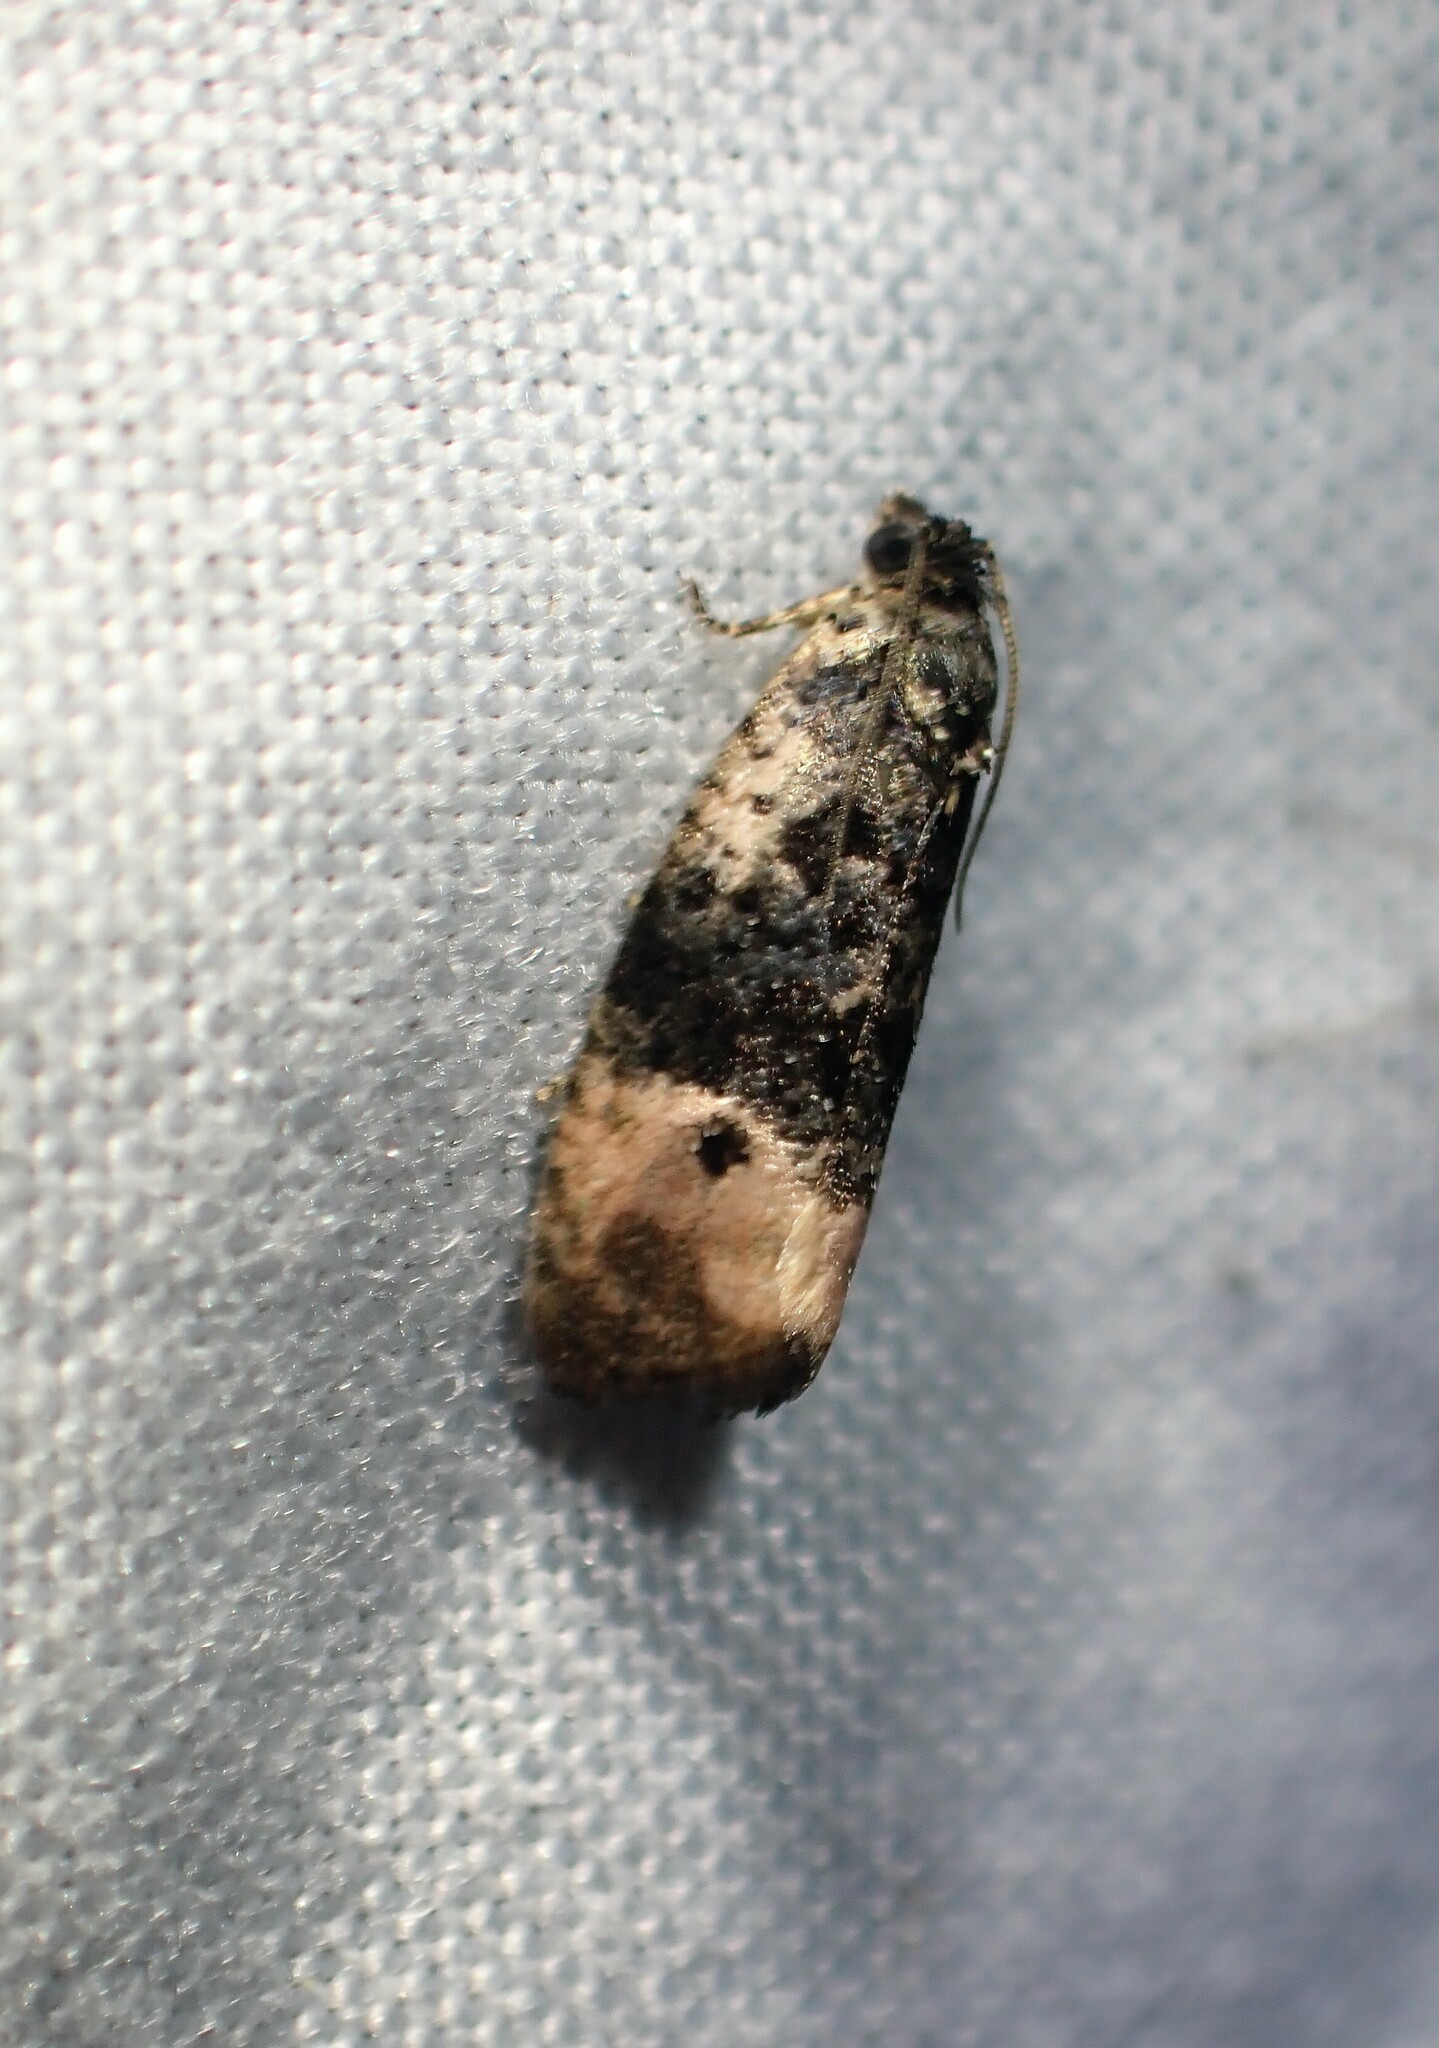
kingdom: Animalia
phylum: Arthropoda
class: Insecta
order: Lepidoptera
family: Tortricidae
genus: Hedya
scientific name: Hedya separatana
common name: Pink-washed leafroller moth
